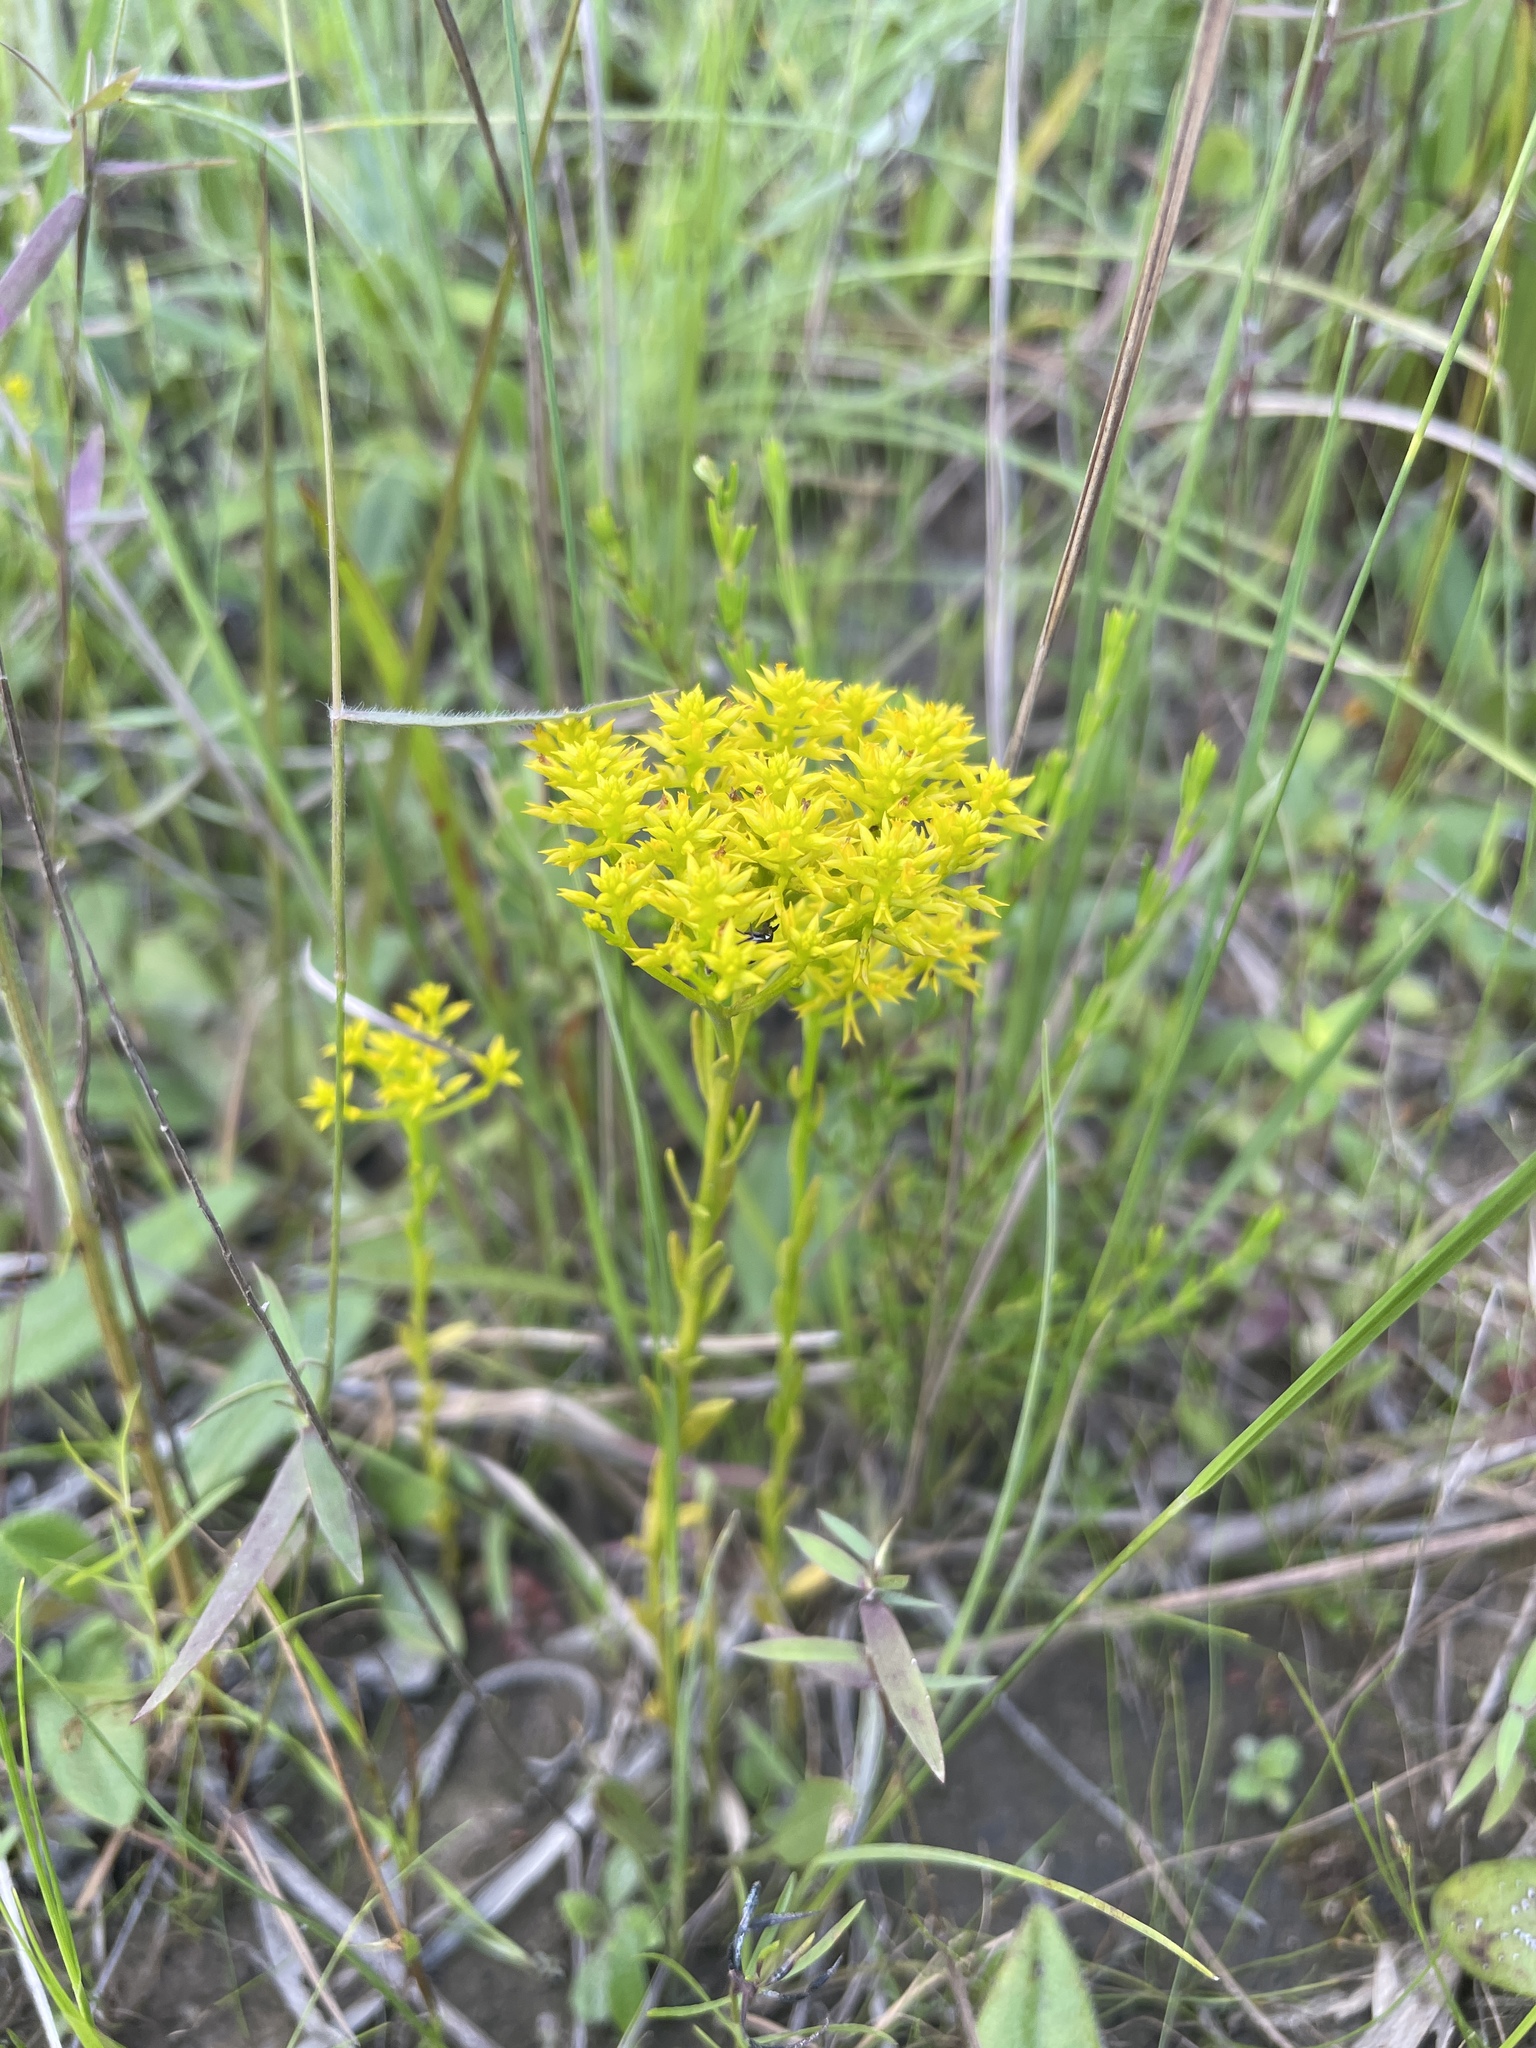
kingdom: Plantae
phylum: Tracheophyta
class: Magnoliopsida
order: Fabales
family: Polygalaceae
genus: Polygala
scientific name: Polygala ramosa
